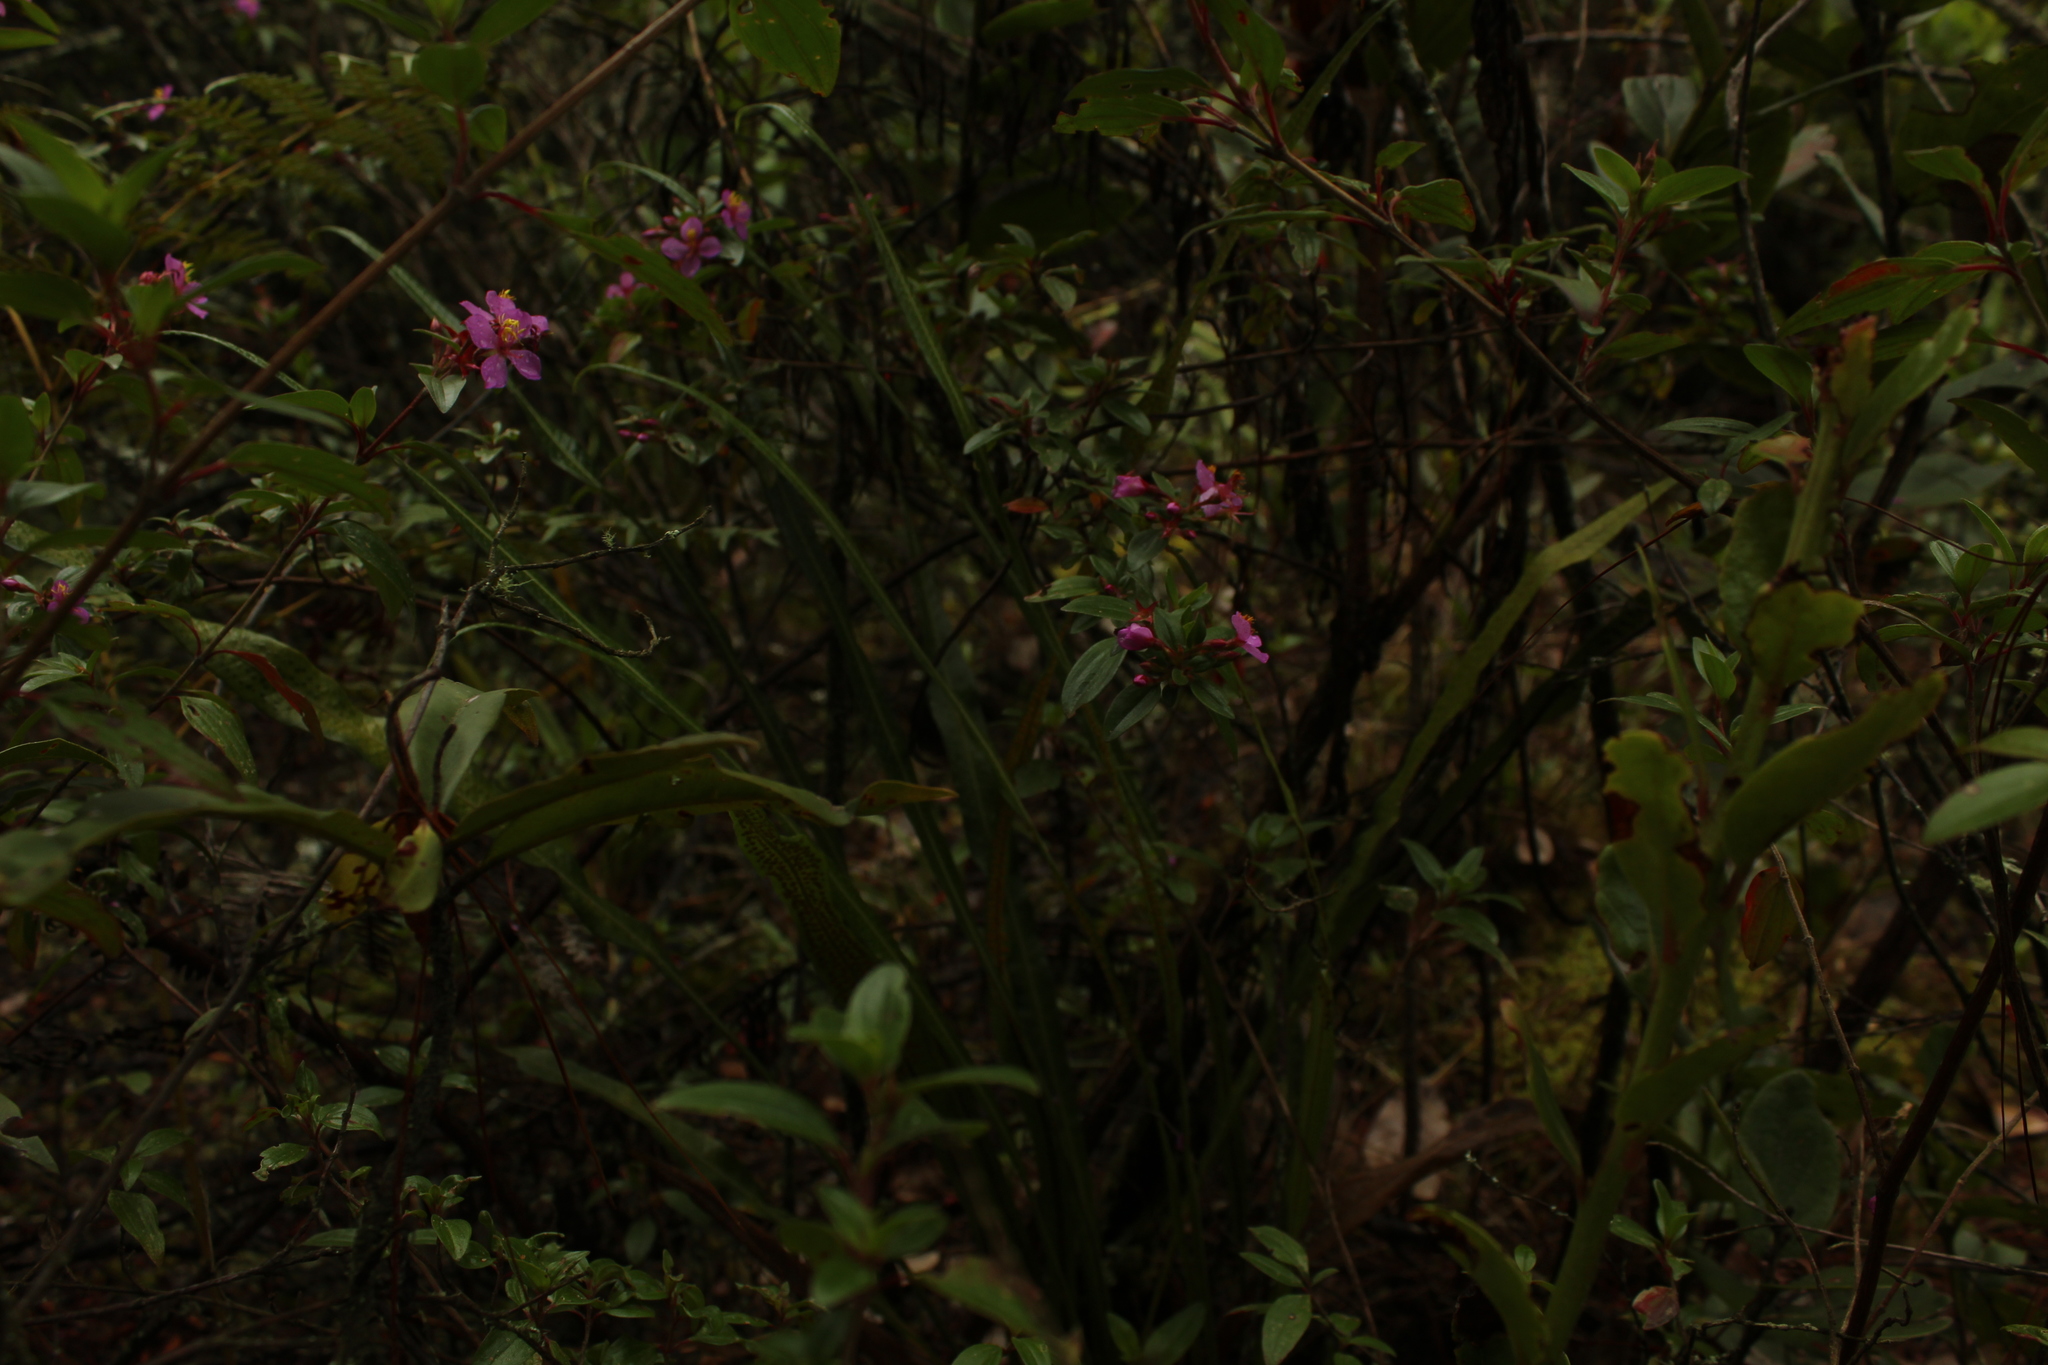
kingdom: Plantae
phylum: Tracheophyta
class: Magnoliopsida
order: Myrtales
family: Melastomataceae
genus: Monochaetum
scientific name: Monochaetum myrtoideum
